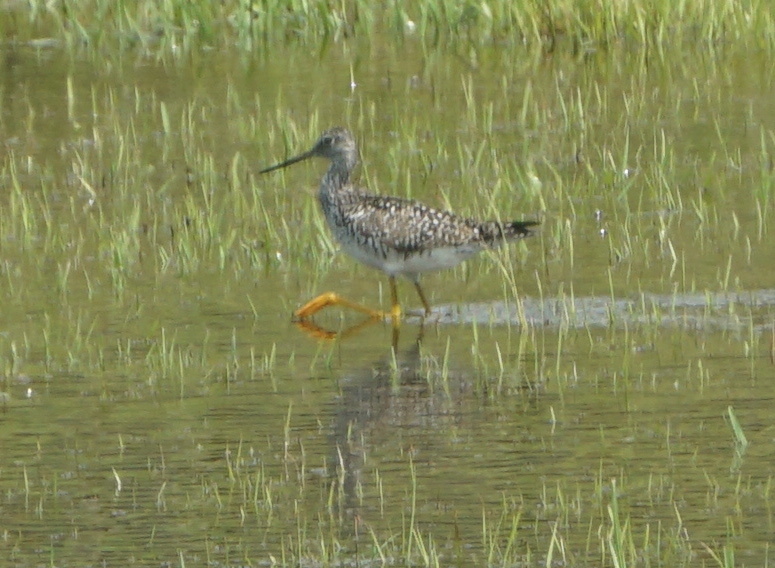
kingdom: Animalia
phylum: Chordata
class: Aves
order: Charadriiformes
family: Scolopacidae
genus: Tringa
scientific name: Tringa melanoleuca
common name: Greater yellowlegs
